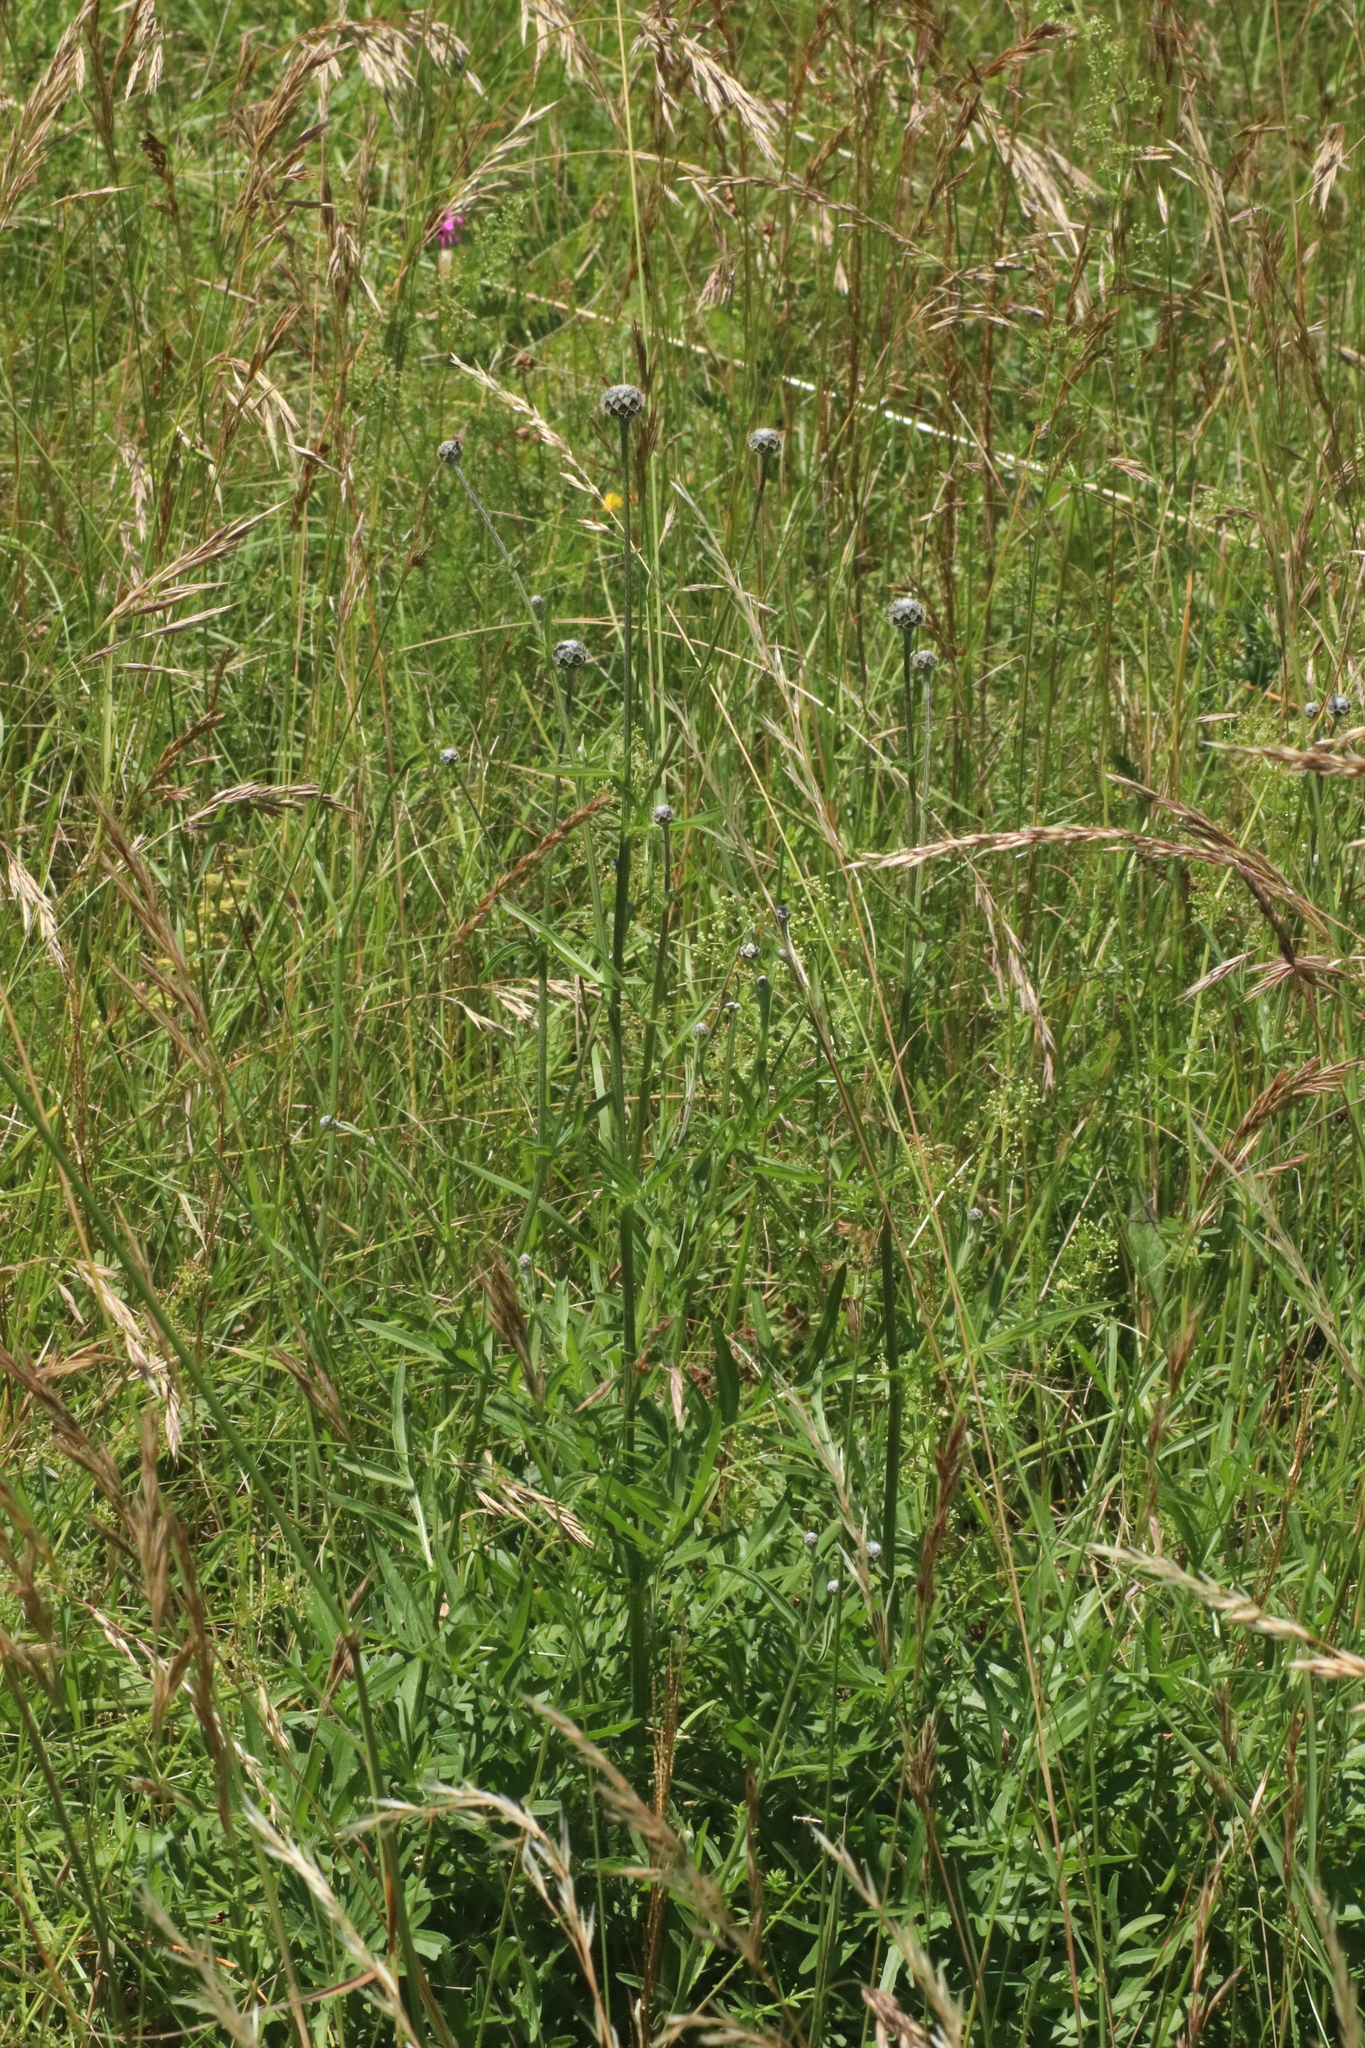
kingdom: Plantae
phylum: Tracheophyta
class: Magnoliopsida
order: Asterales
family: Asteraceae
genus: Centaurea
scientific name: Centaurea scabiosa
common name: Greater knapweed
